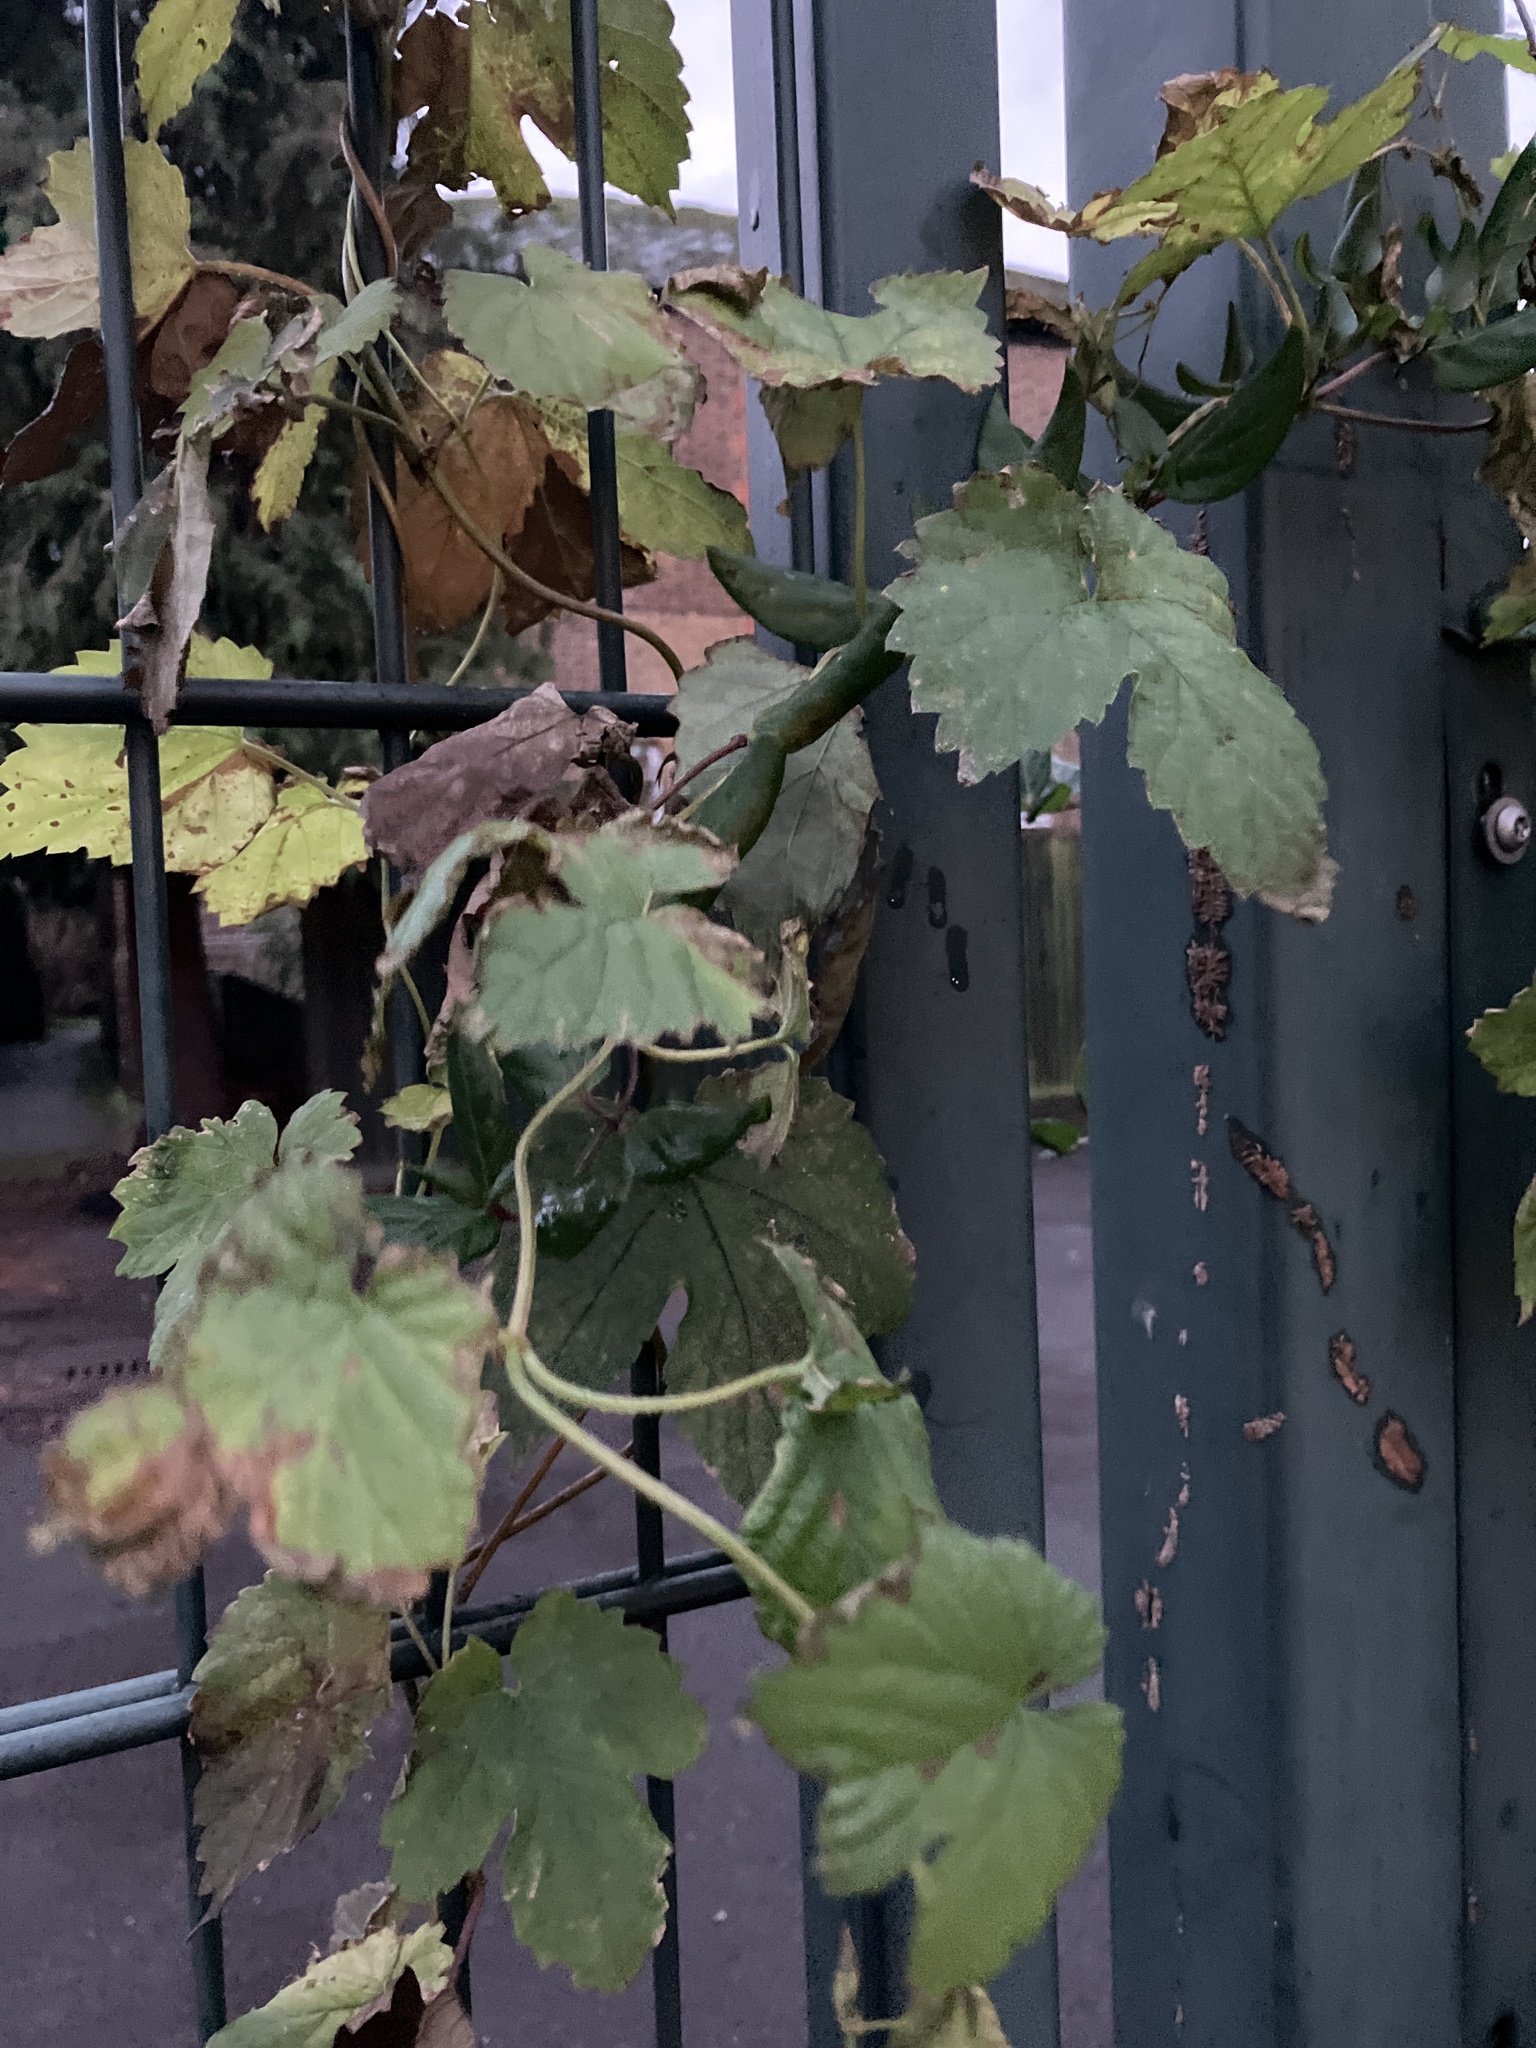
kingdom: Plantae
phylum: Tracheophyta
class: Magnoliopsida
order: Rosales
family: Cannabaceae
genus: Humulus
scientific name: Humulus lupulus
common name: Hop
